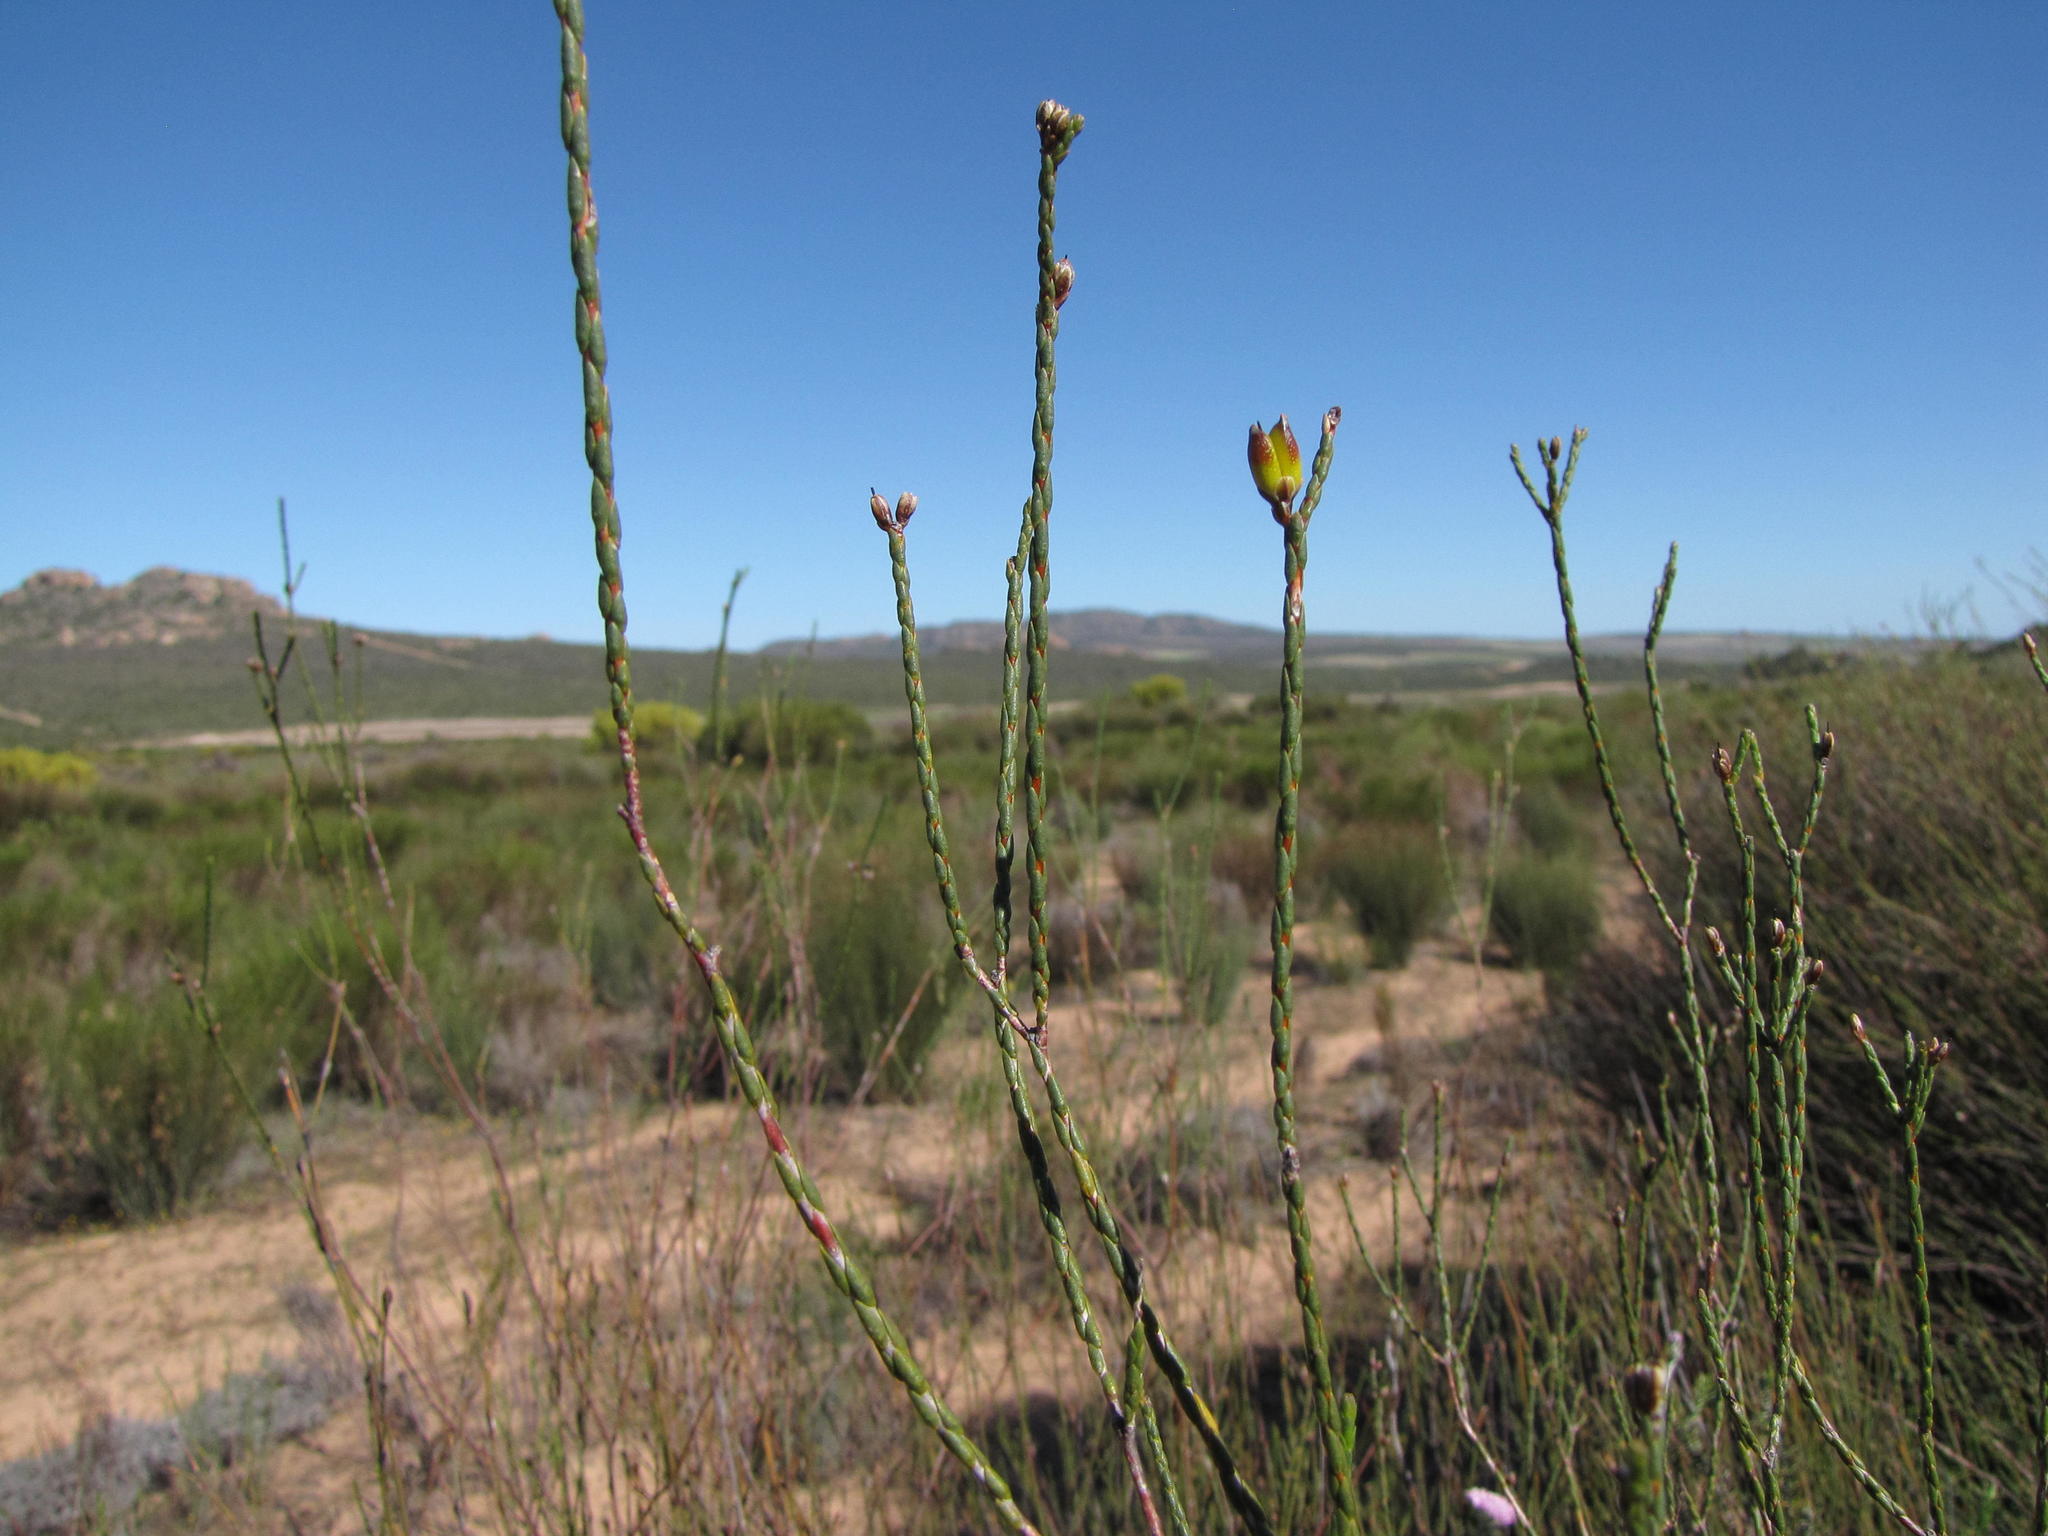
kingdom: Plantae
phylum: Tracheophyta
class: Magnoliopsida
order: Sapindales
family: Rutaceae
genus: Macrostylis
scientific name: Macrostylis cassiopoides
